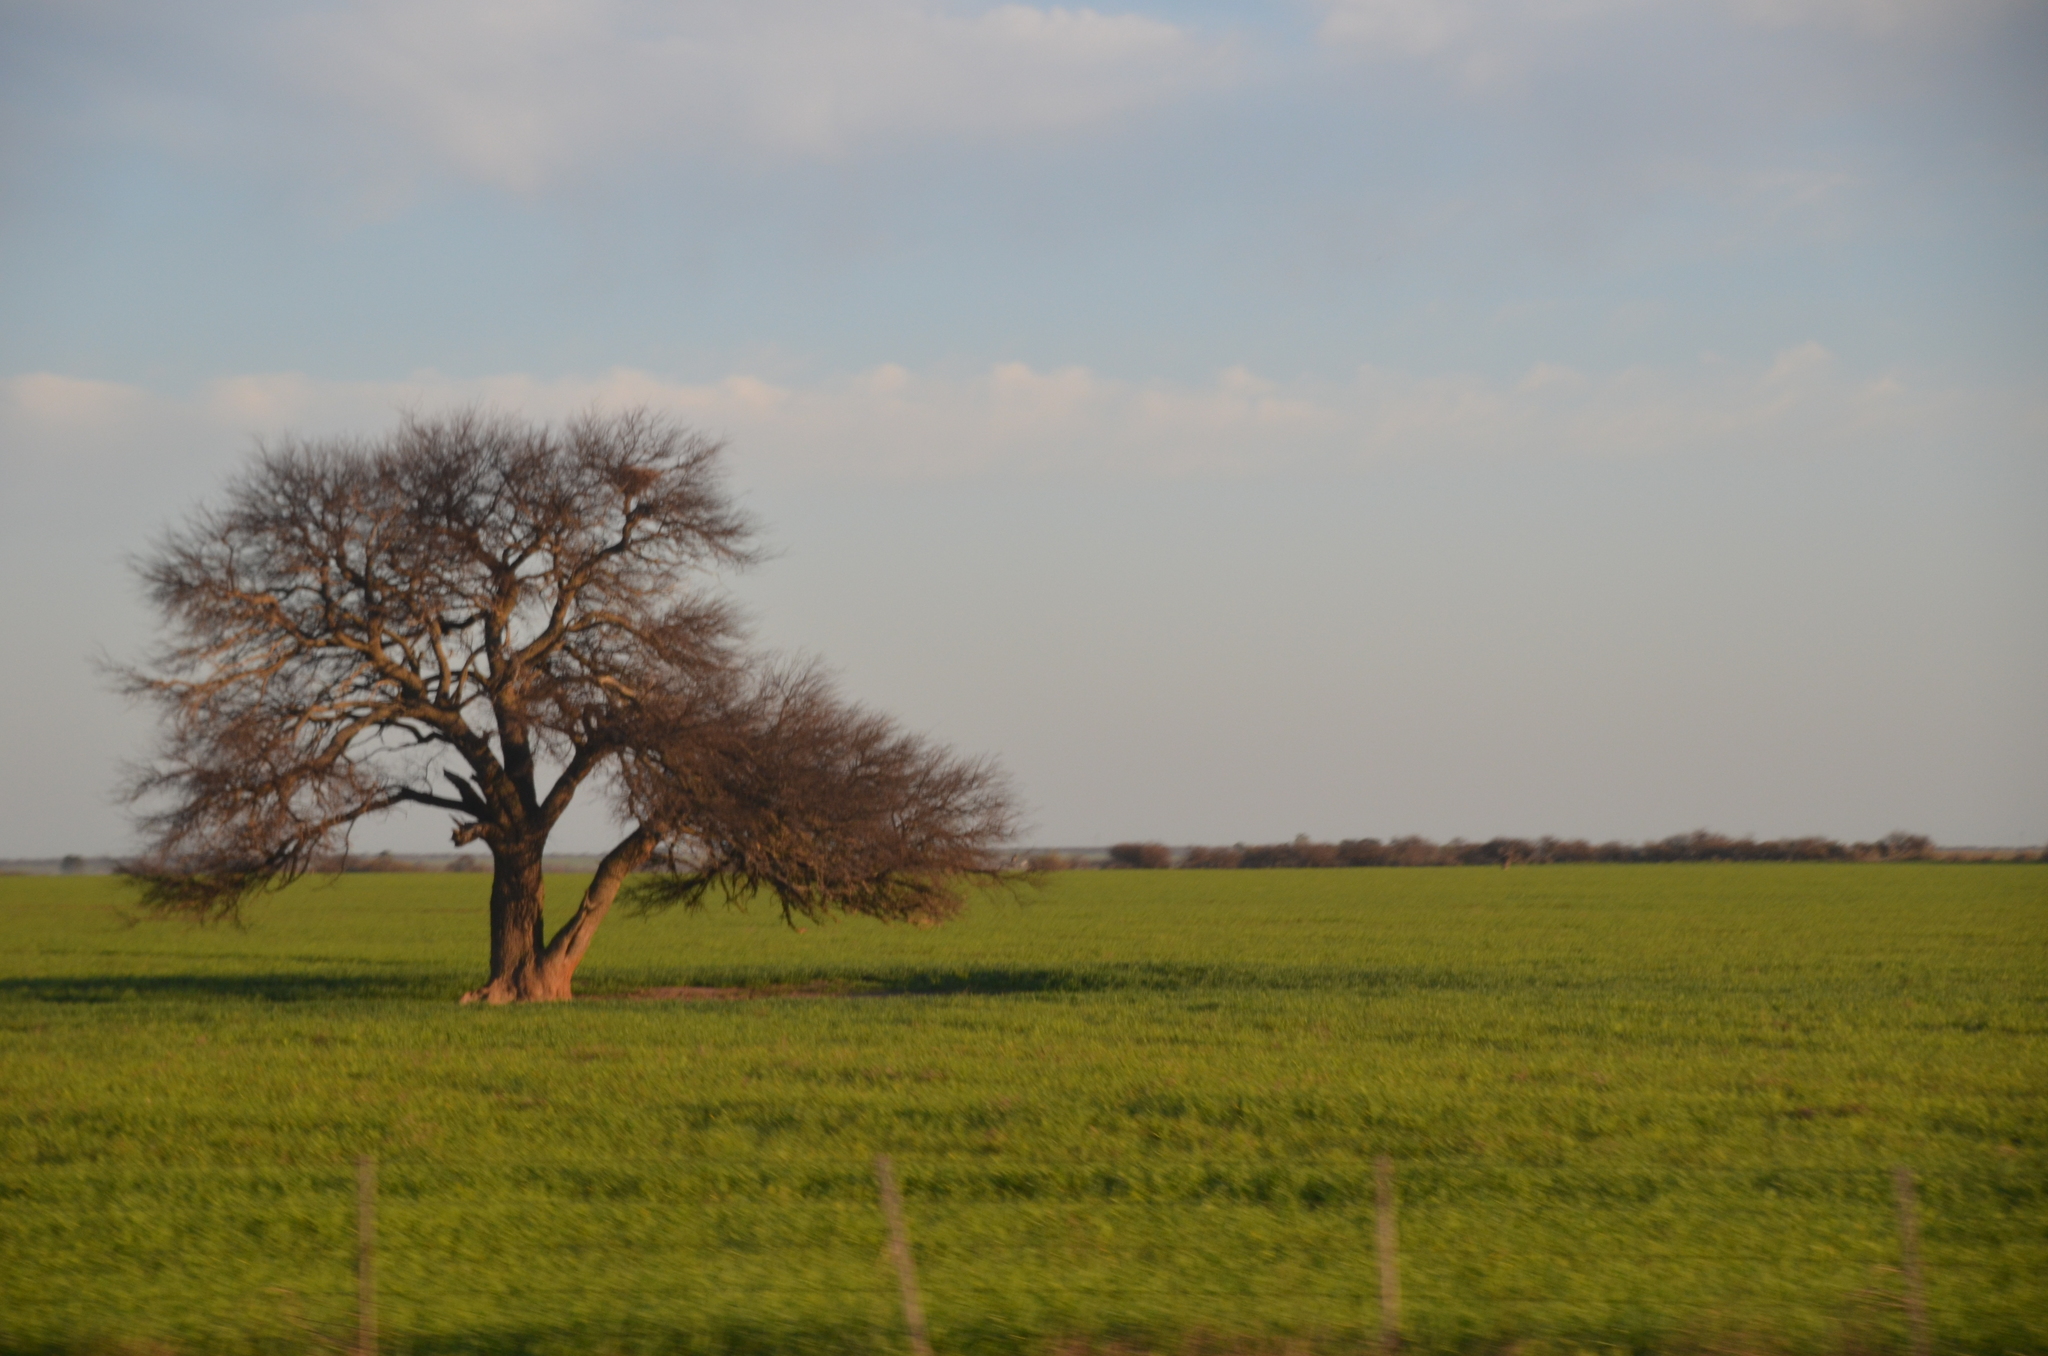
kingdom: Plantae
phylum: Tracheophyta
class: Magnoliopsida
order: Fabales
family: Fabaceae
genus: Prosopis
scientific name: Prosopis caldenia
